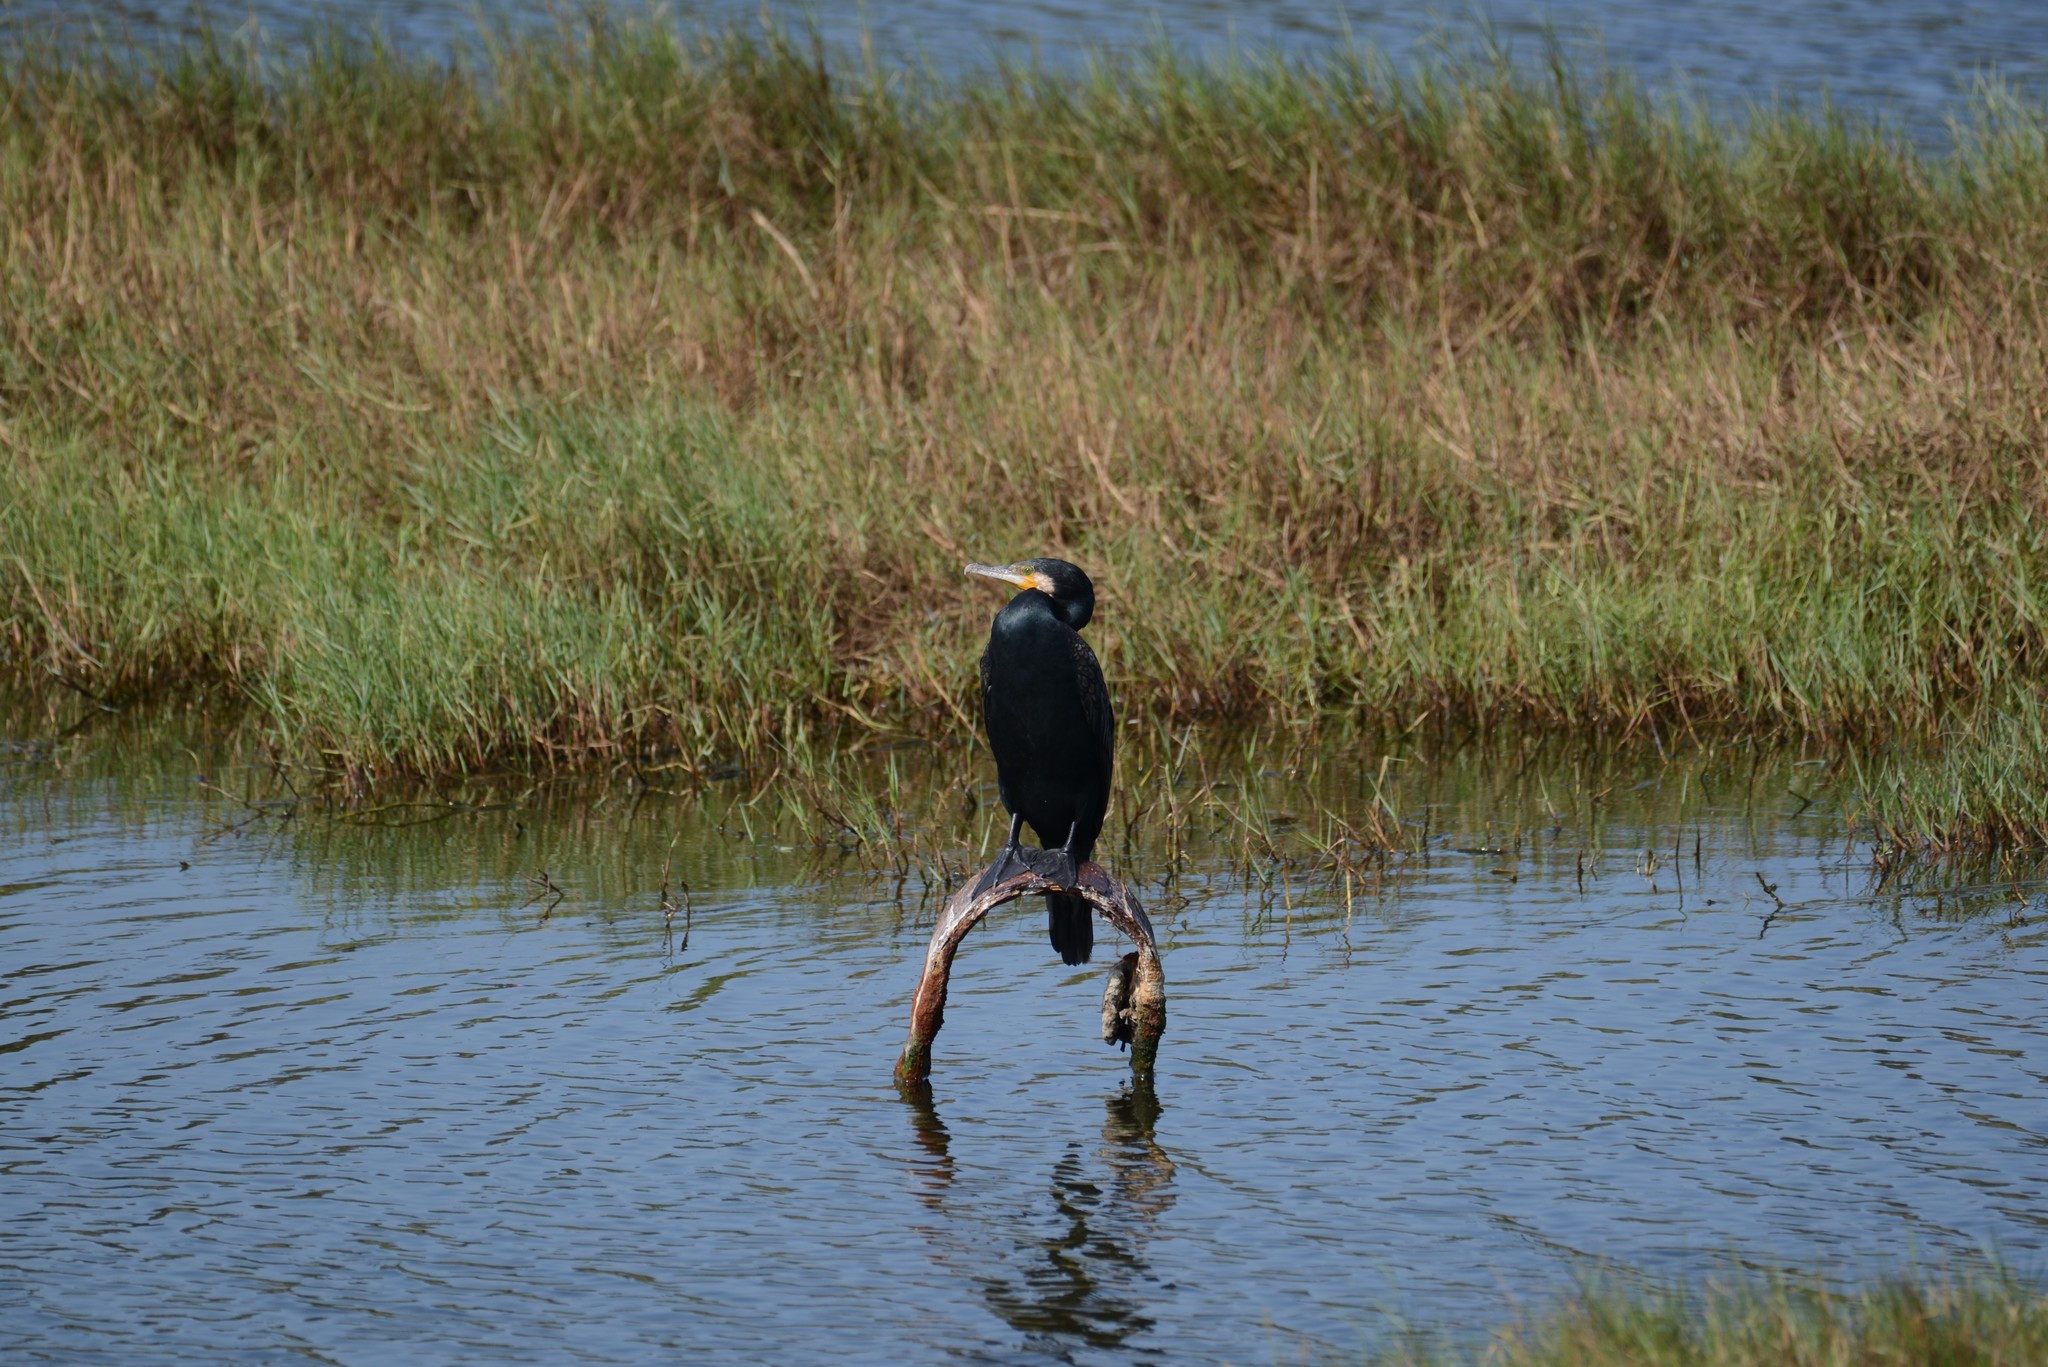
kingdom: Animalia
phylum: Chordata
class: Aves
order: Suliformes
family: Phalacrocoracidae
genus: Phalacrocorax
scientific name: Phalacrocorax carbo
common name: Great cormorant
